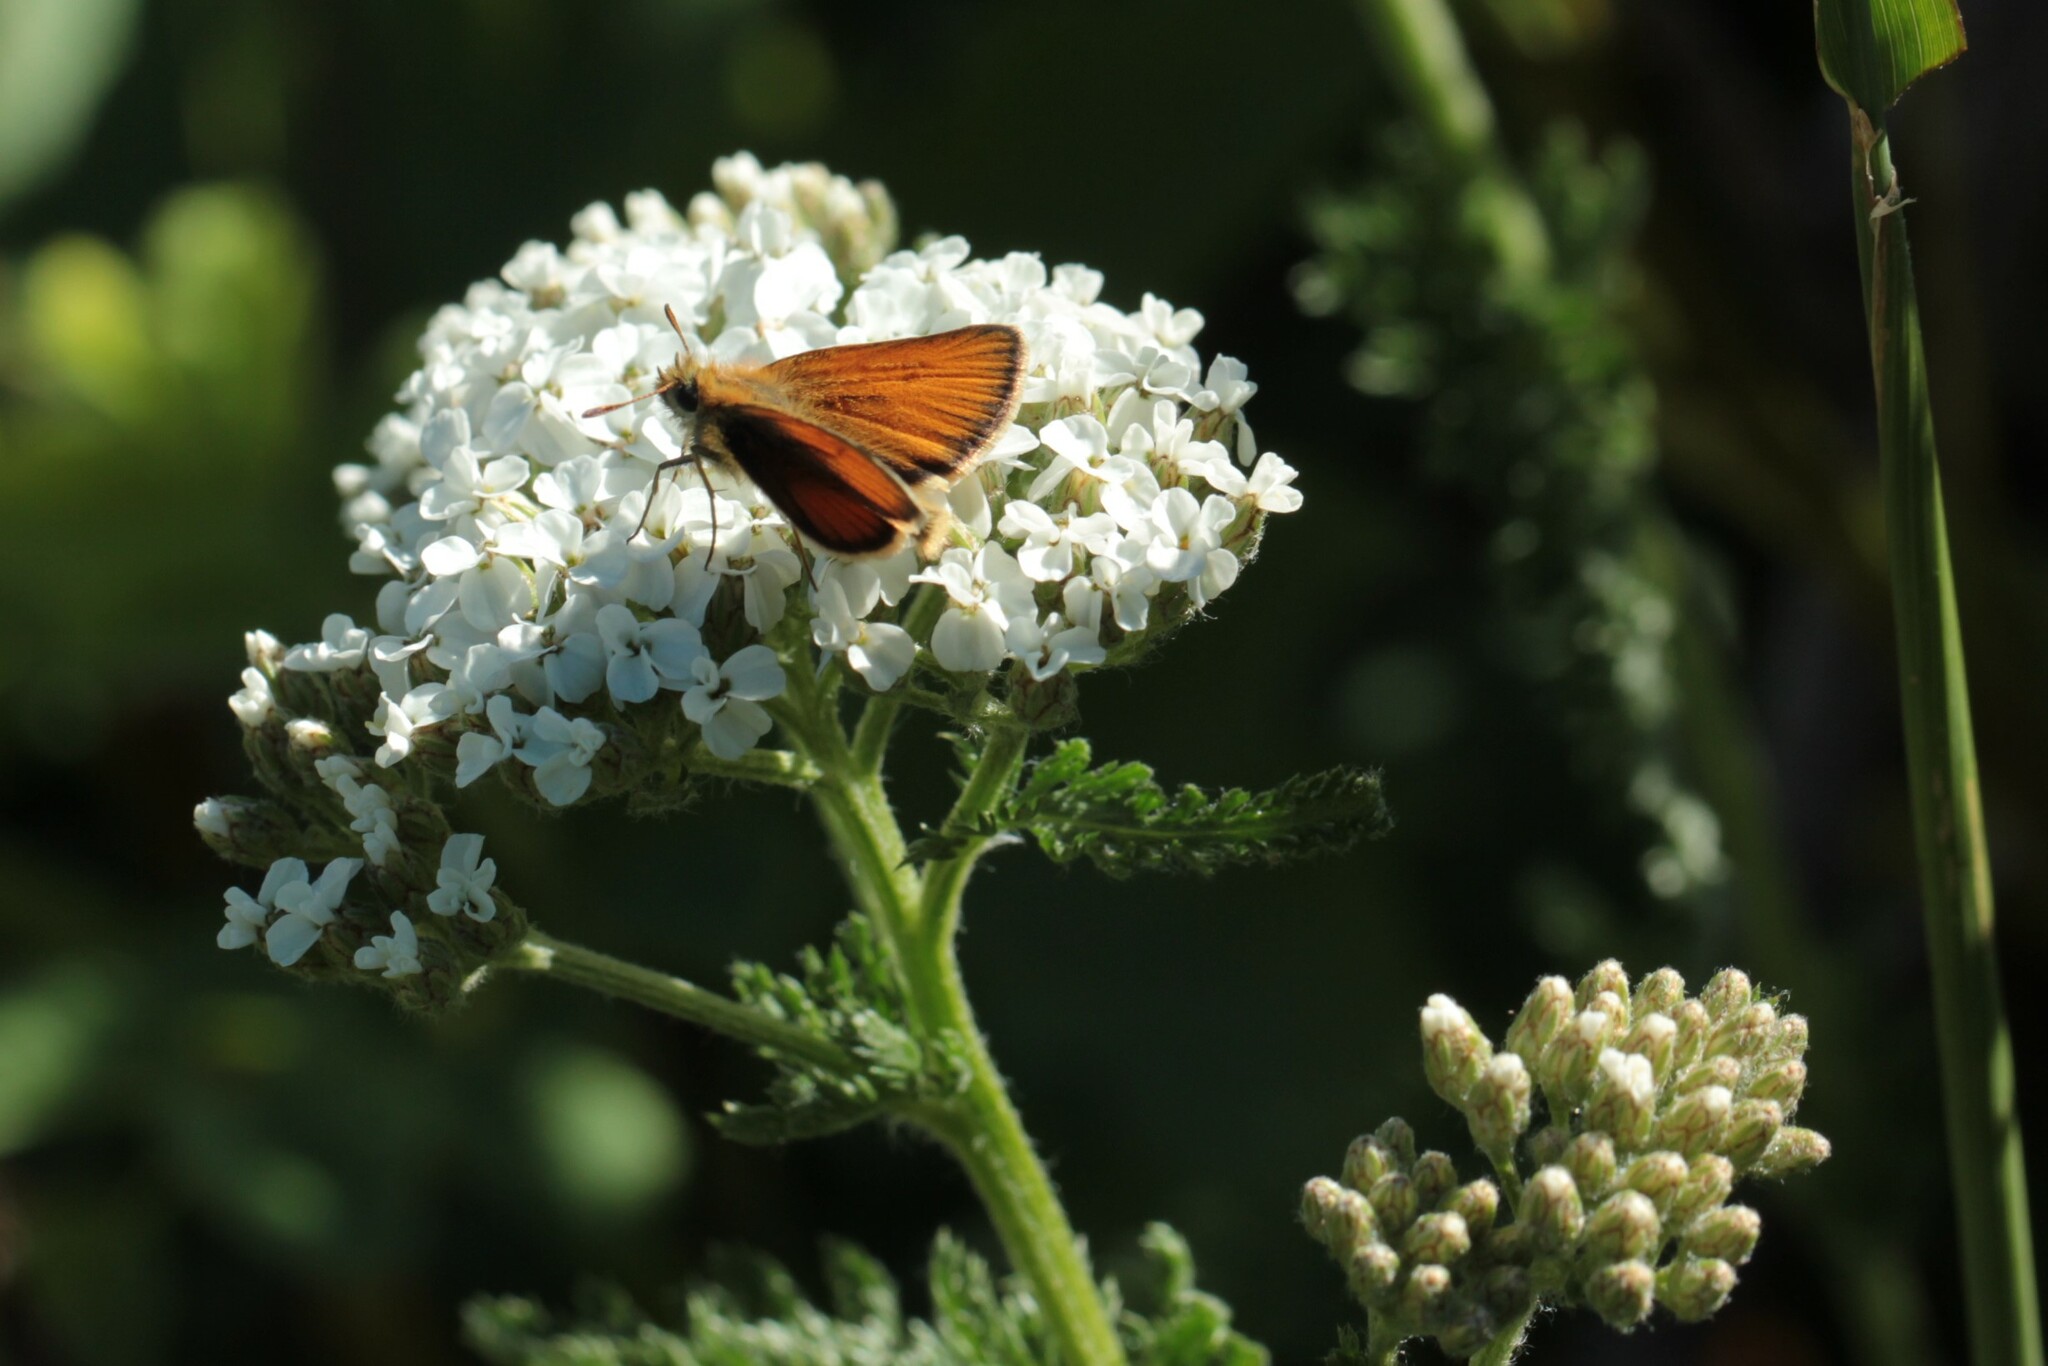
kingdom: Animalia
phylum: Arthropoda
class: Insecta
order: Lepidoptera
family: Hesperiidae
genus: Thymelicus
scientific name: Thymelicus lineola
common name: Essex skipper
